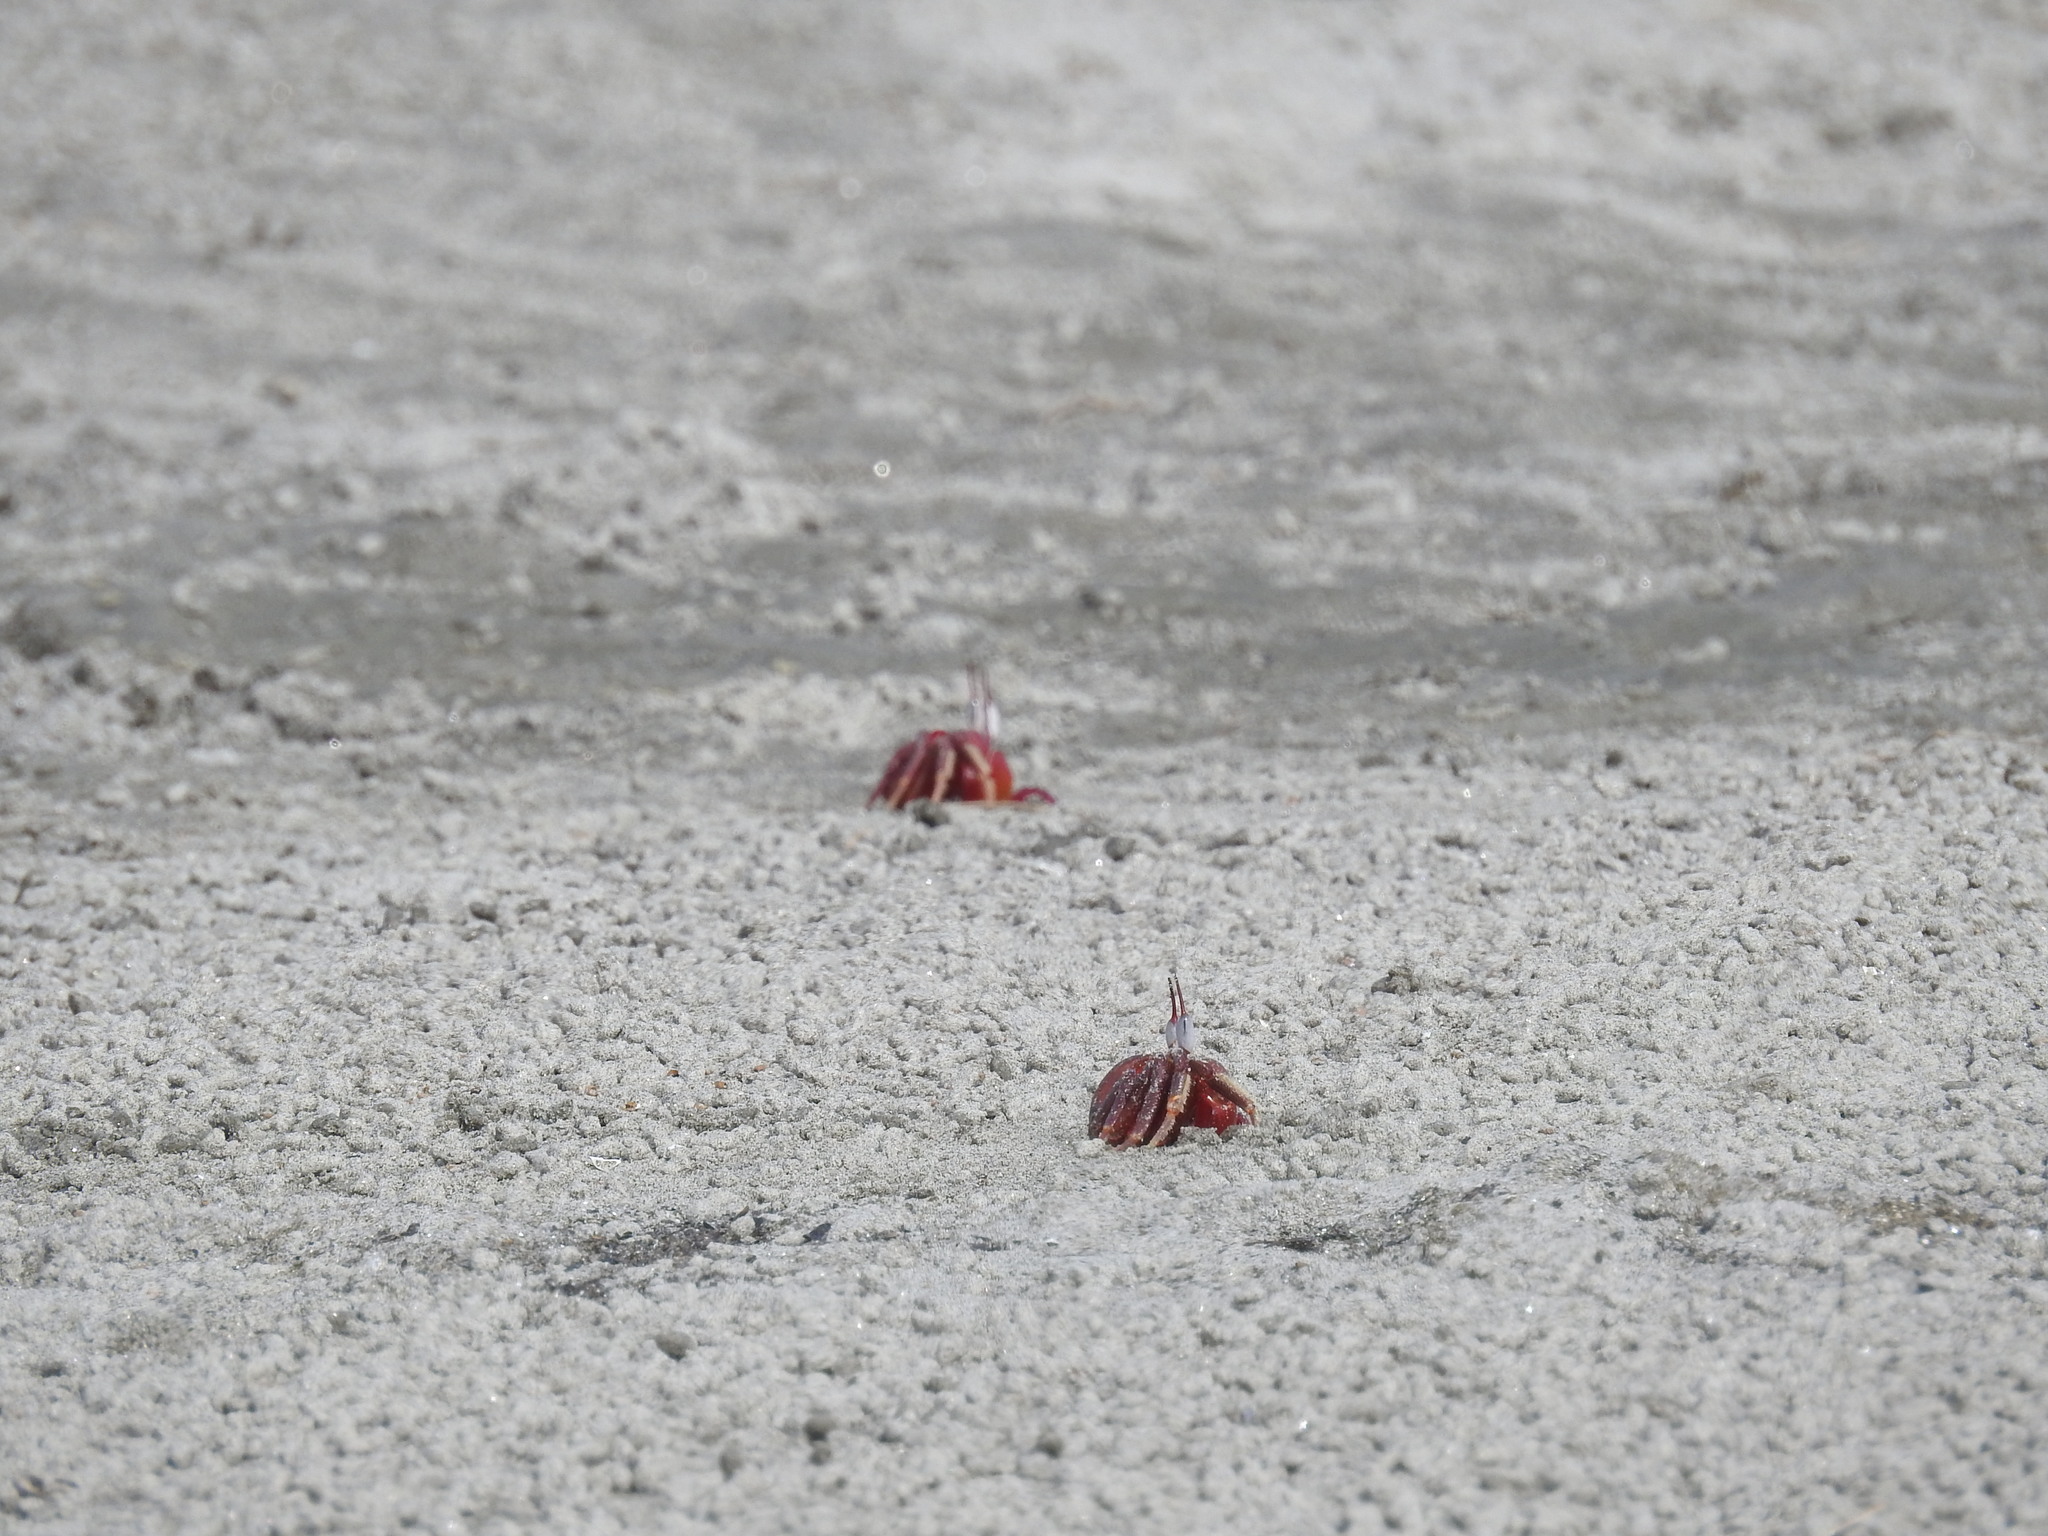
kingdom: Animalia
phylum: Arthropoda
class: Malacostraca
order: Decapoda
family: Ocypodidae
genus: Ocypode
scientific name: Ocypode macrocera
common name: Red ghost crab
